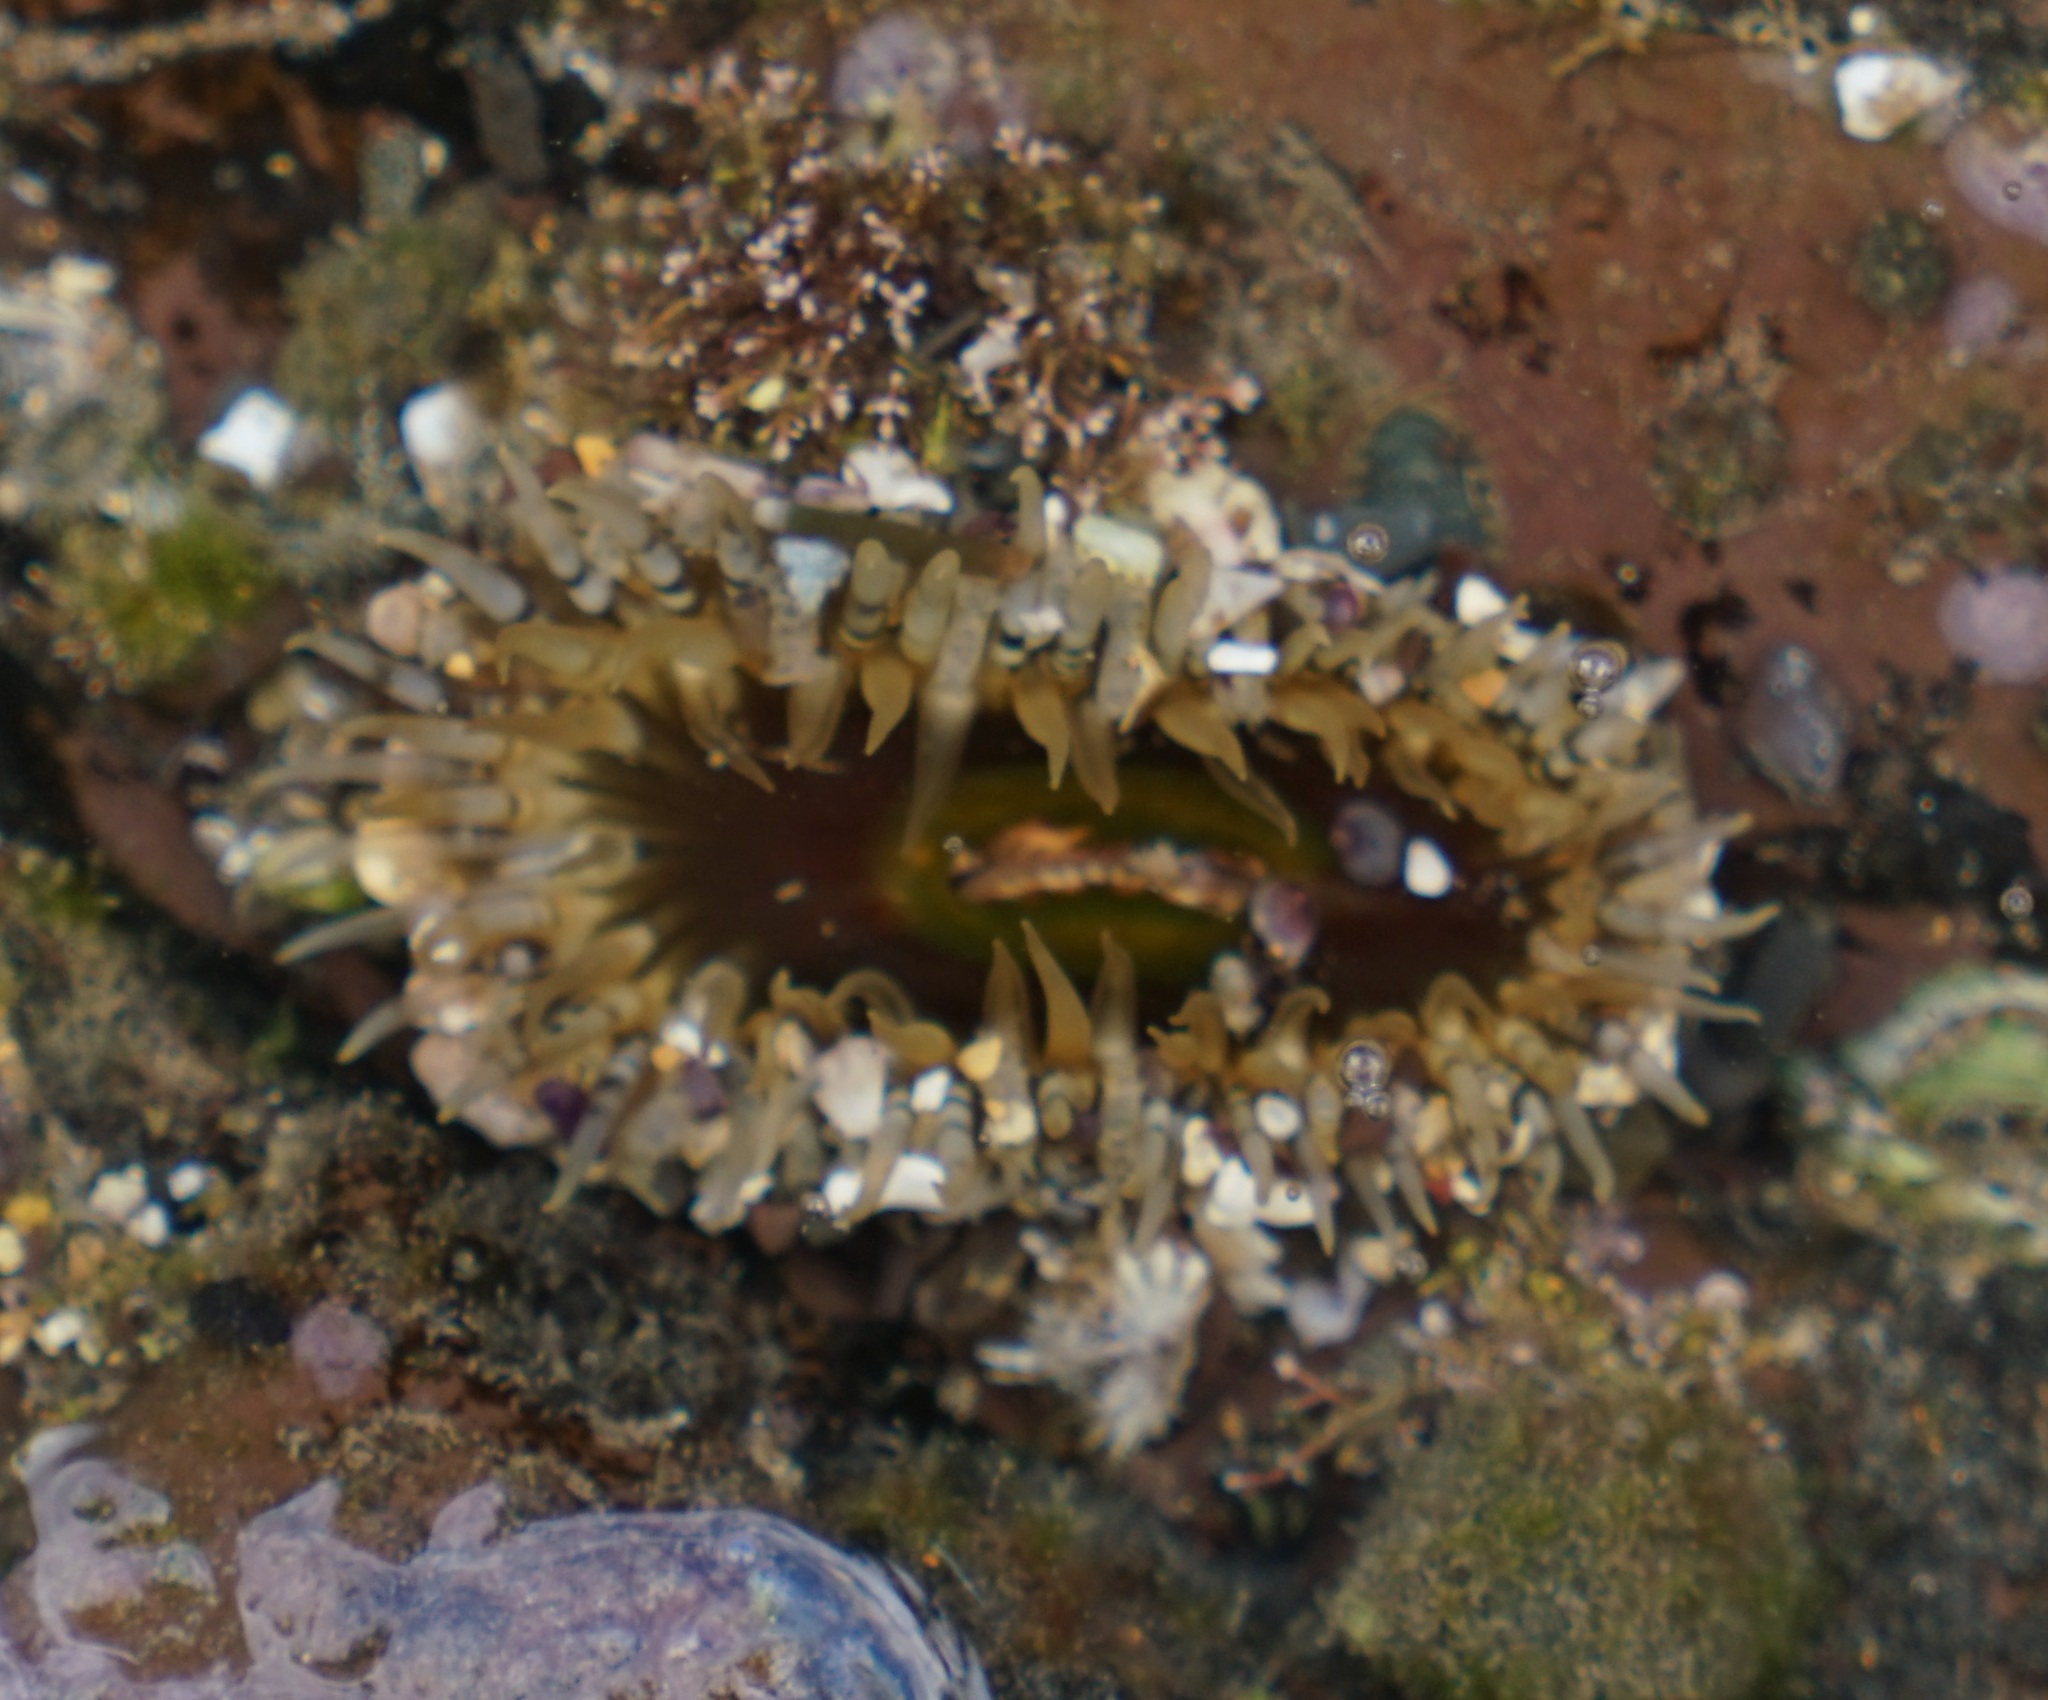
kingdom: Animalia
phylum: Cnidaria
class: Anthozoa
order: Actiniaria
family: Actiniidae
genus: Oulactis
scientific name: Oulactis muscosa
